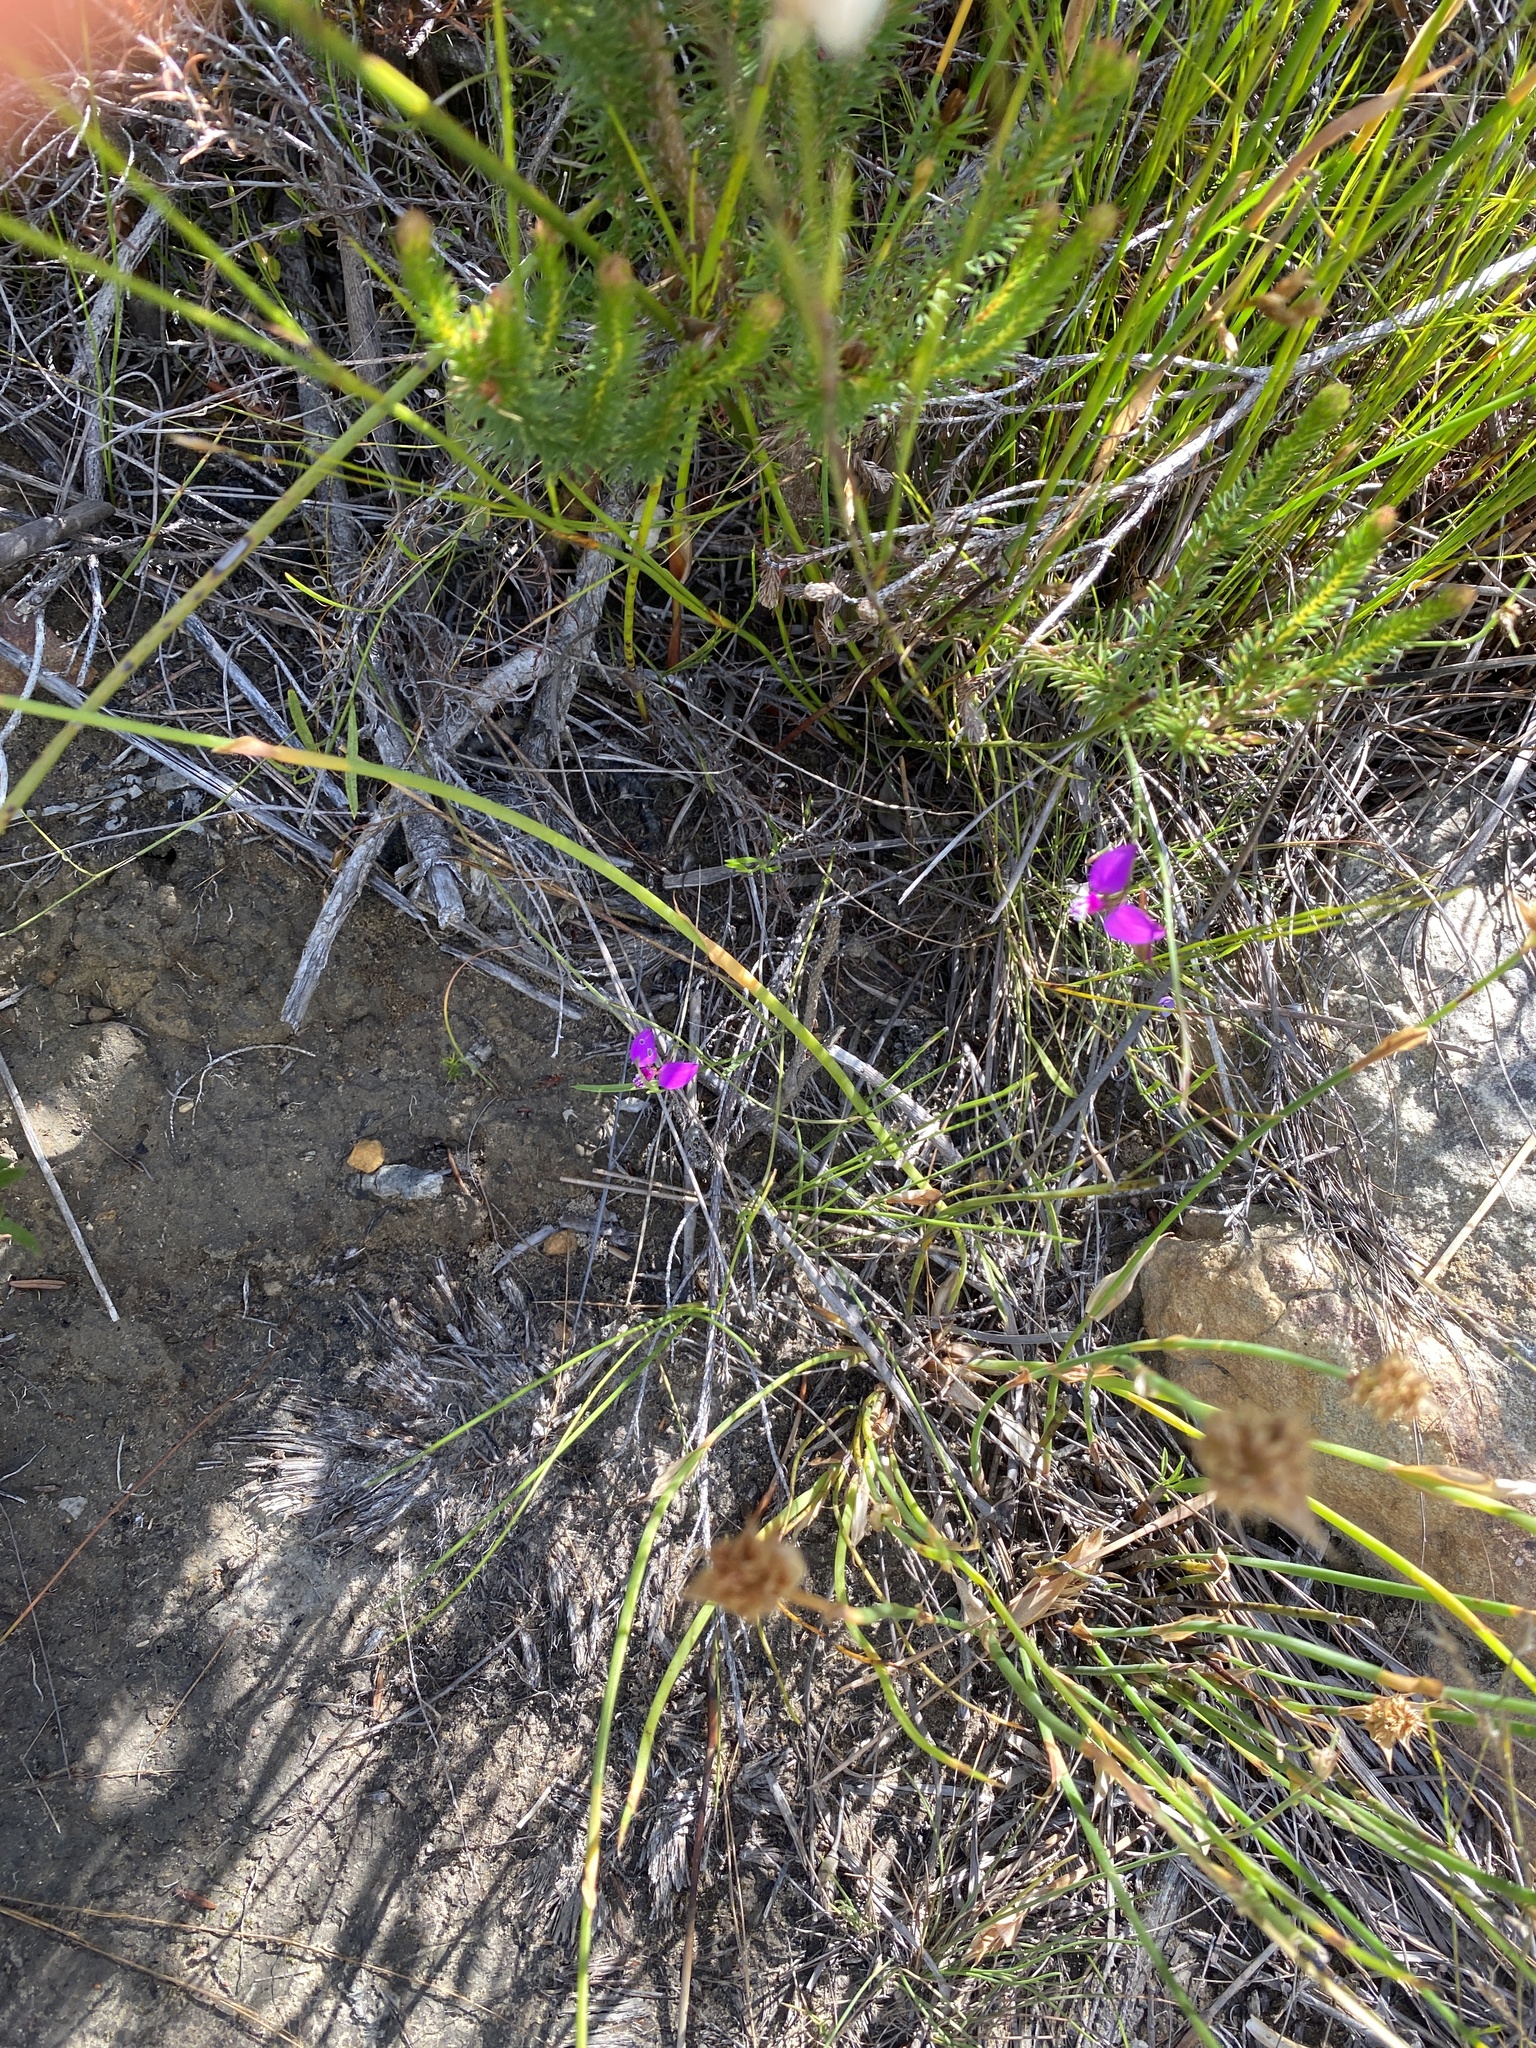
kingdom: Plantae
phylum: Tracheophyta
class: Magnoliopsida
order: Fabales
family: Polygalaceae
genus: Polygala
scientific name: Polygala refracta
